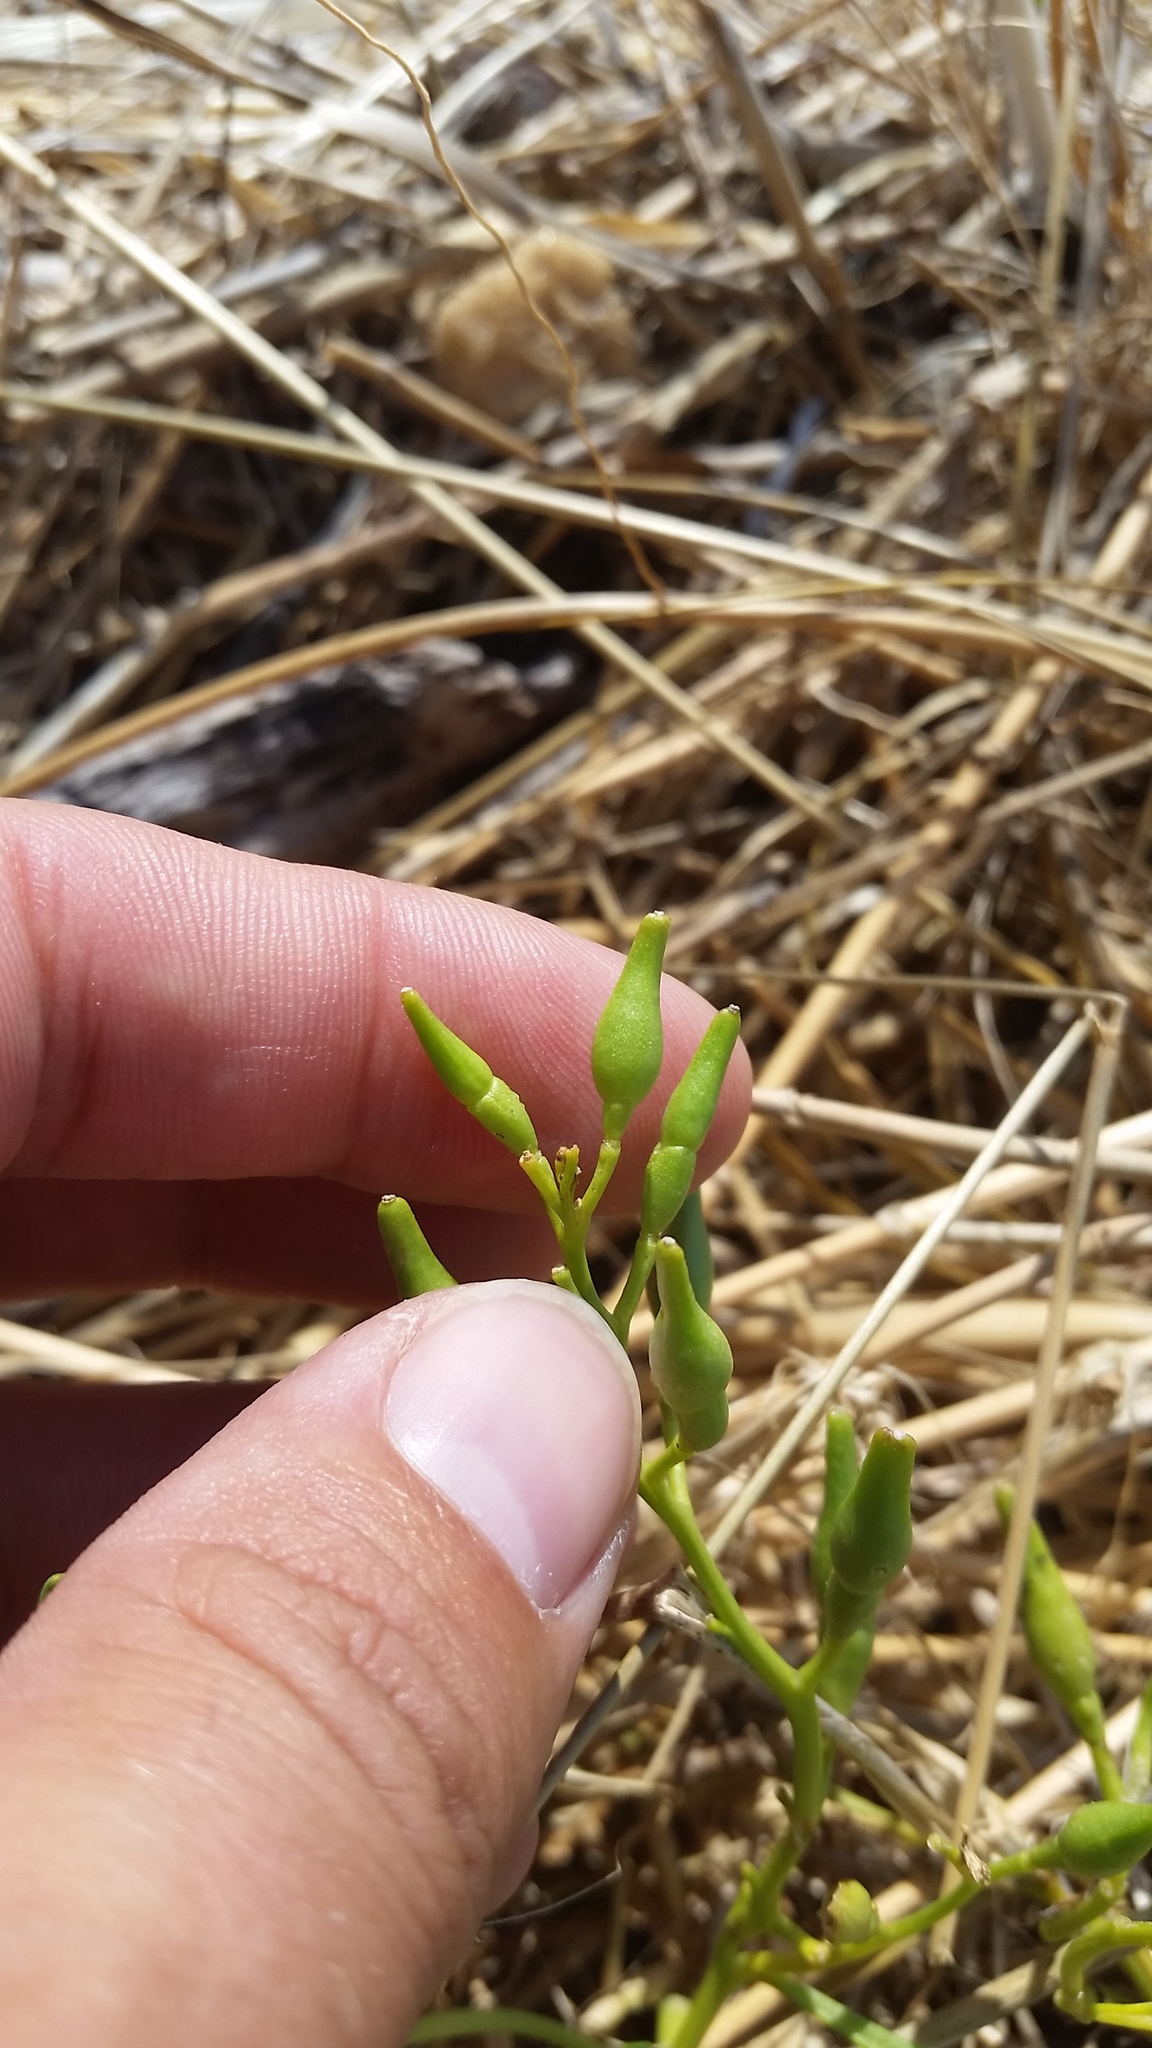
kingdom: Plantae
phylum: Tracheophyta
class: Magnoliopsida
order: Brassicales
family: Brassicaceae
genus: Cakile
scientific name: Cakile edentula
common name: American sea rocket
